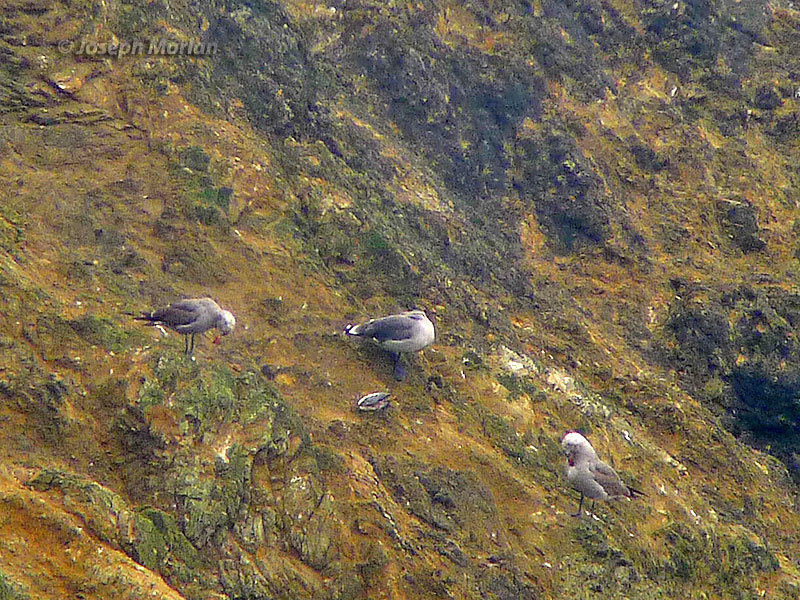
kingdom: Animalia
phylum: Chordata
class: Aves
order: Charadriiformes
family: Laridae
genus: Larus
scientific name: Larus heermanni
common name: Heermann's gull
